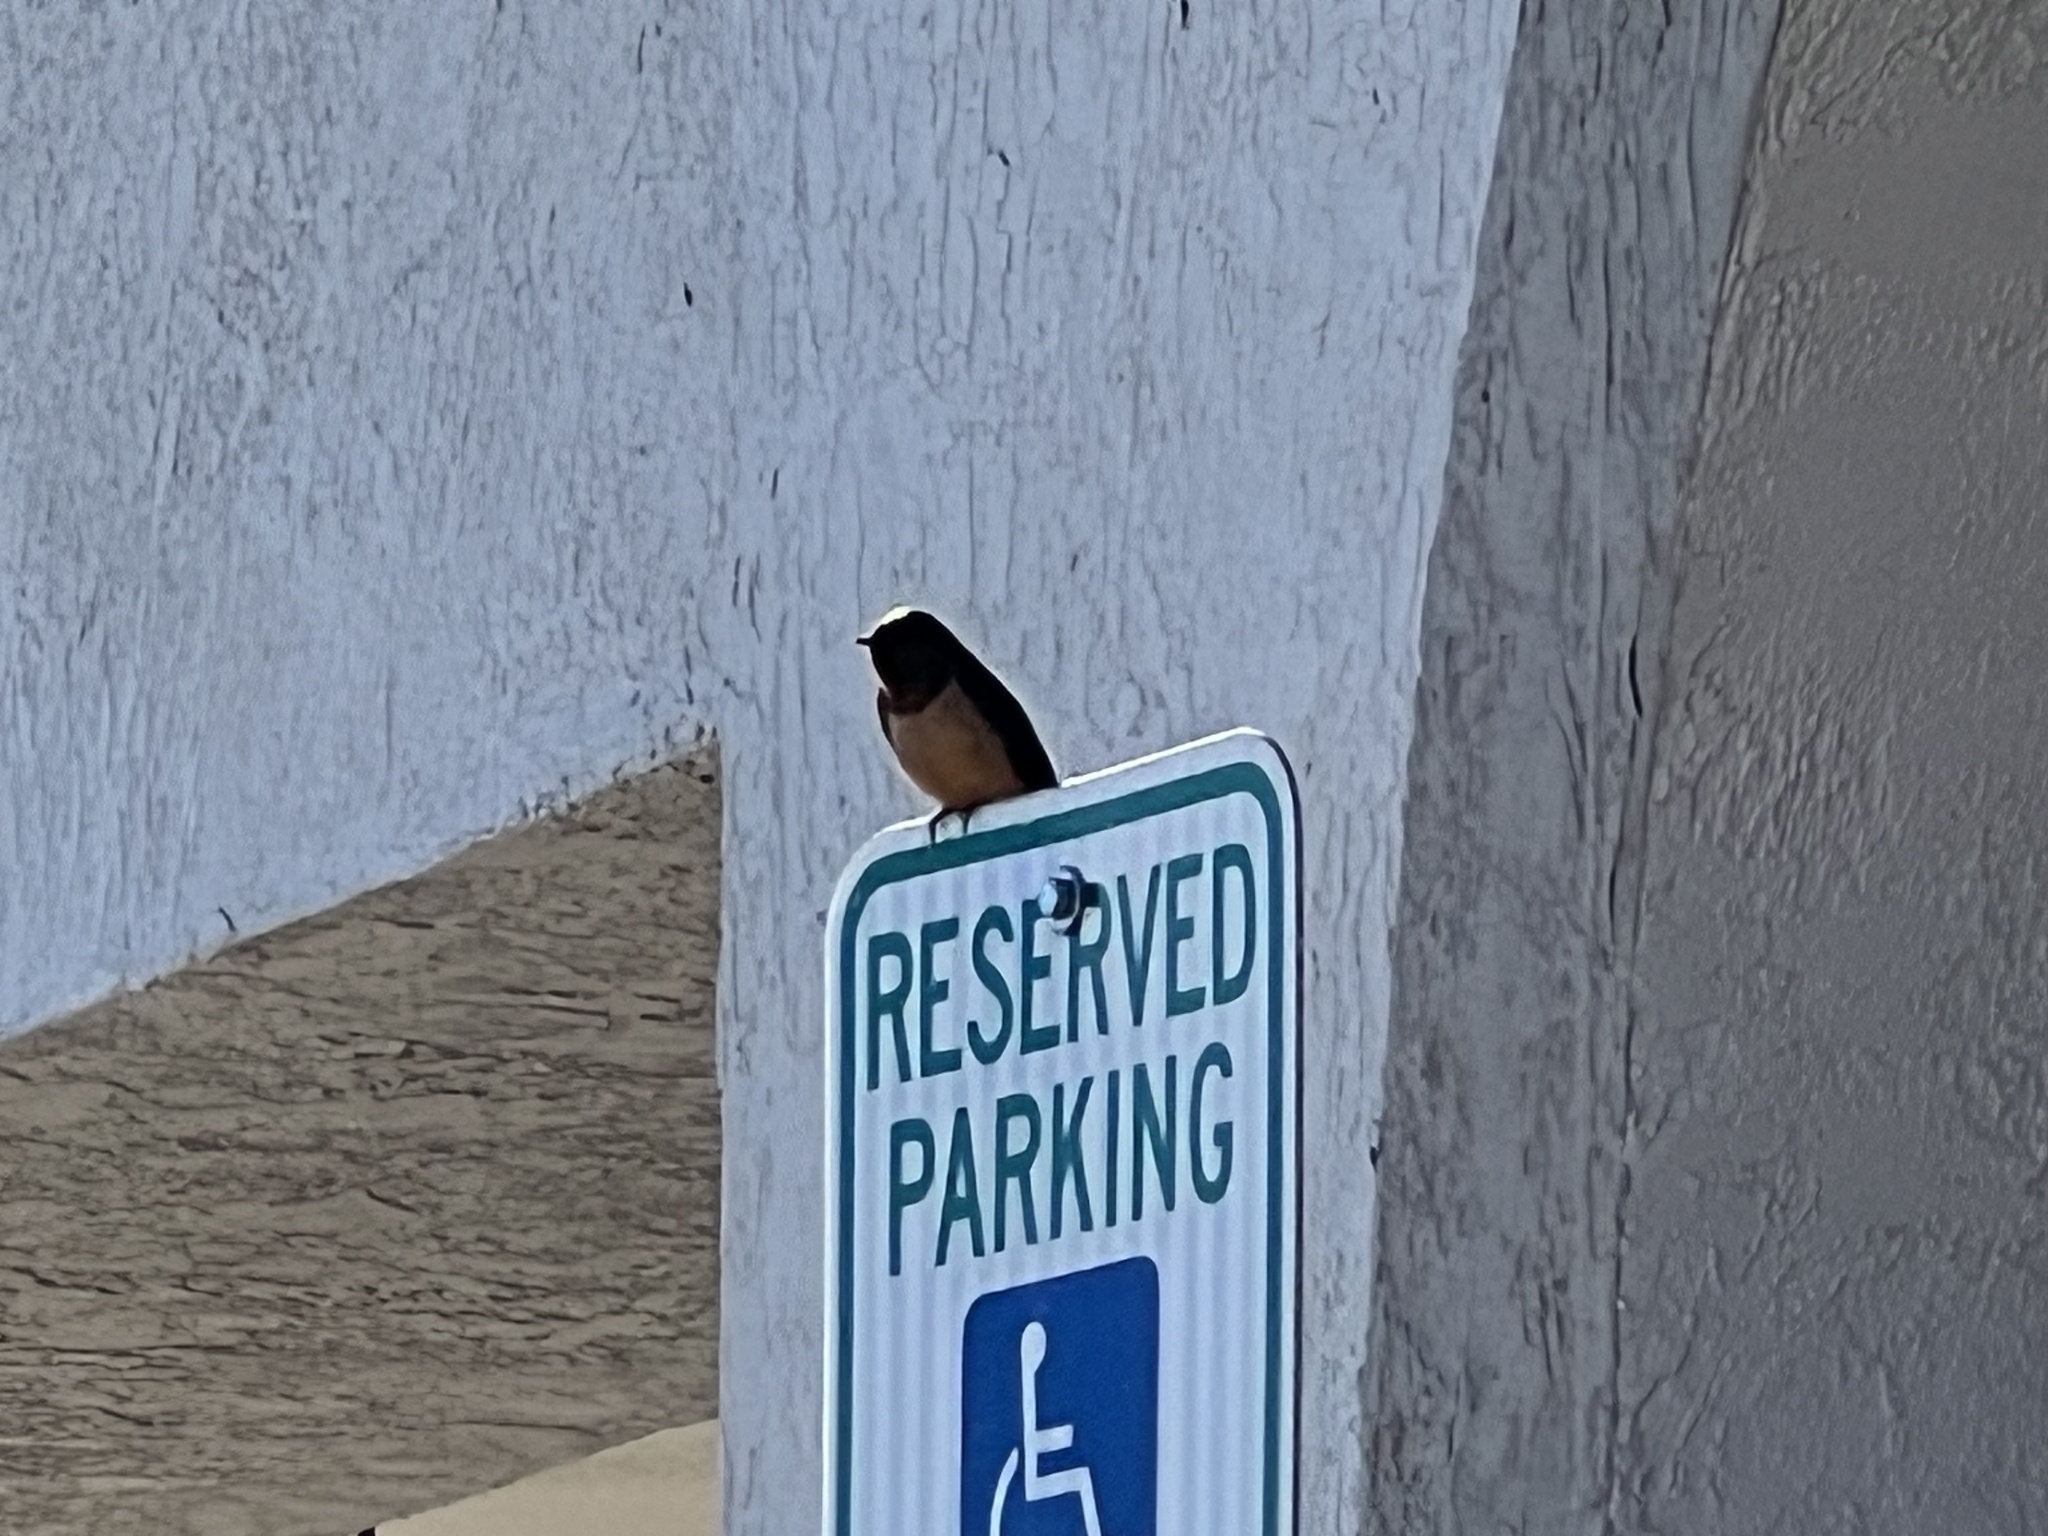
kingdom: Animalia
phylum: Chordata
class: Aves
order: Passeriformes
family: Hirundinidae
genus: Hirundo
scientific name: Hirundo rustica
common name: Barn swallow
